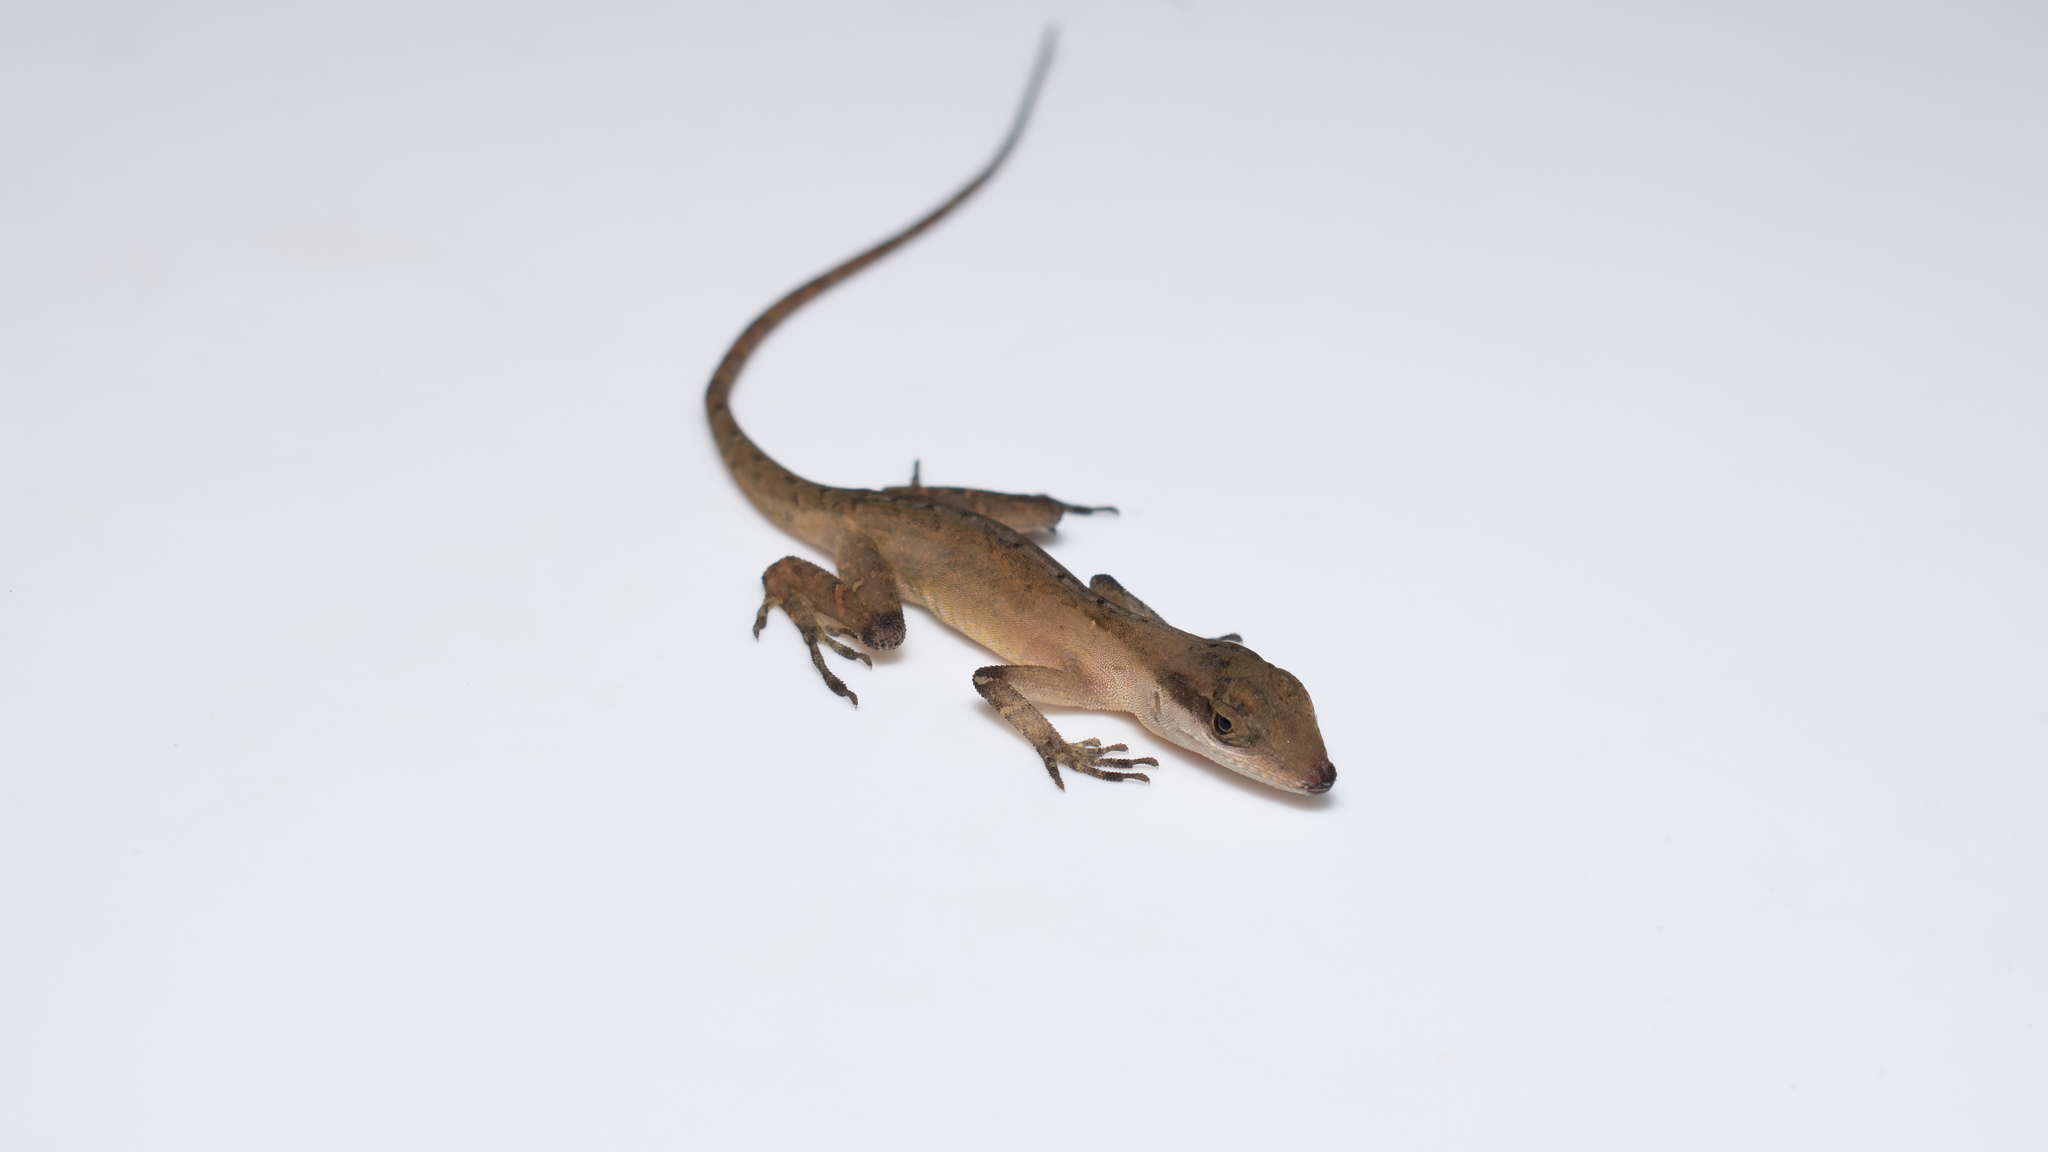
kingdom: Animalia
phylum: Chordata
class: Squamata
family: Dactyloidae
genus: Anolis
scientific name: Anolis gaigei
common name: Gaige’s anole
